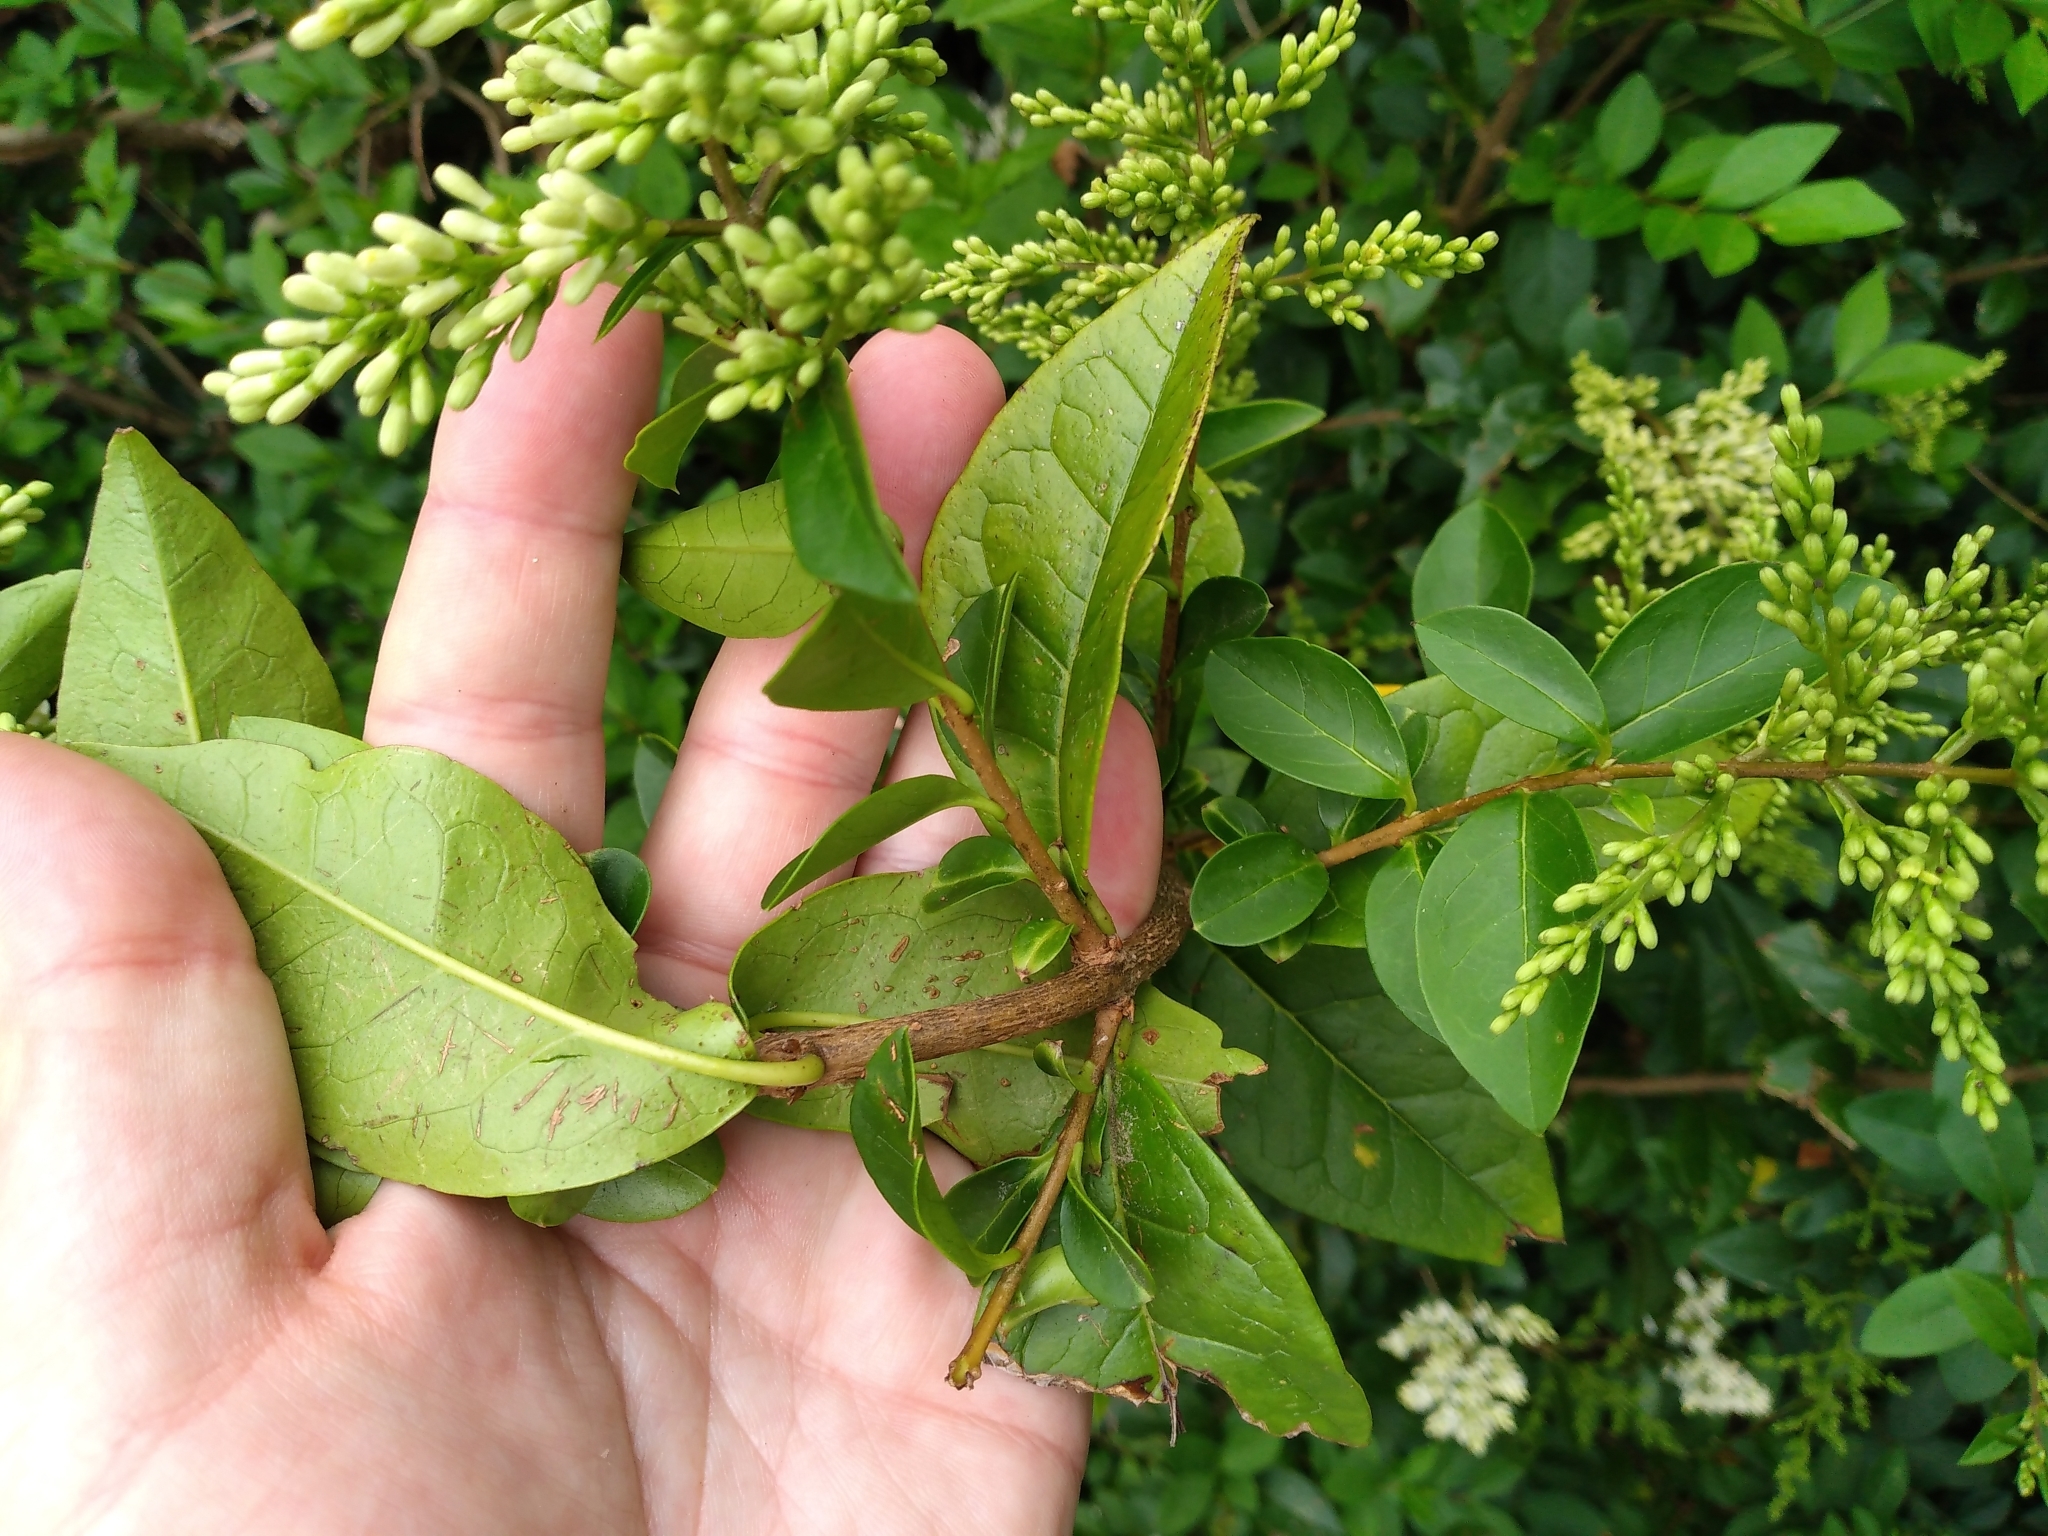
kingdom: Plantae
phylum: Tracheophyta
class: Magnoliopsida
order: Lamiales
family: Oleaceae
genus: Ligustrum
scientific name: Ligustrum ovalifolium
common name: California privet
